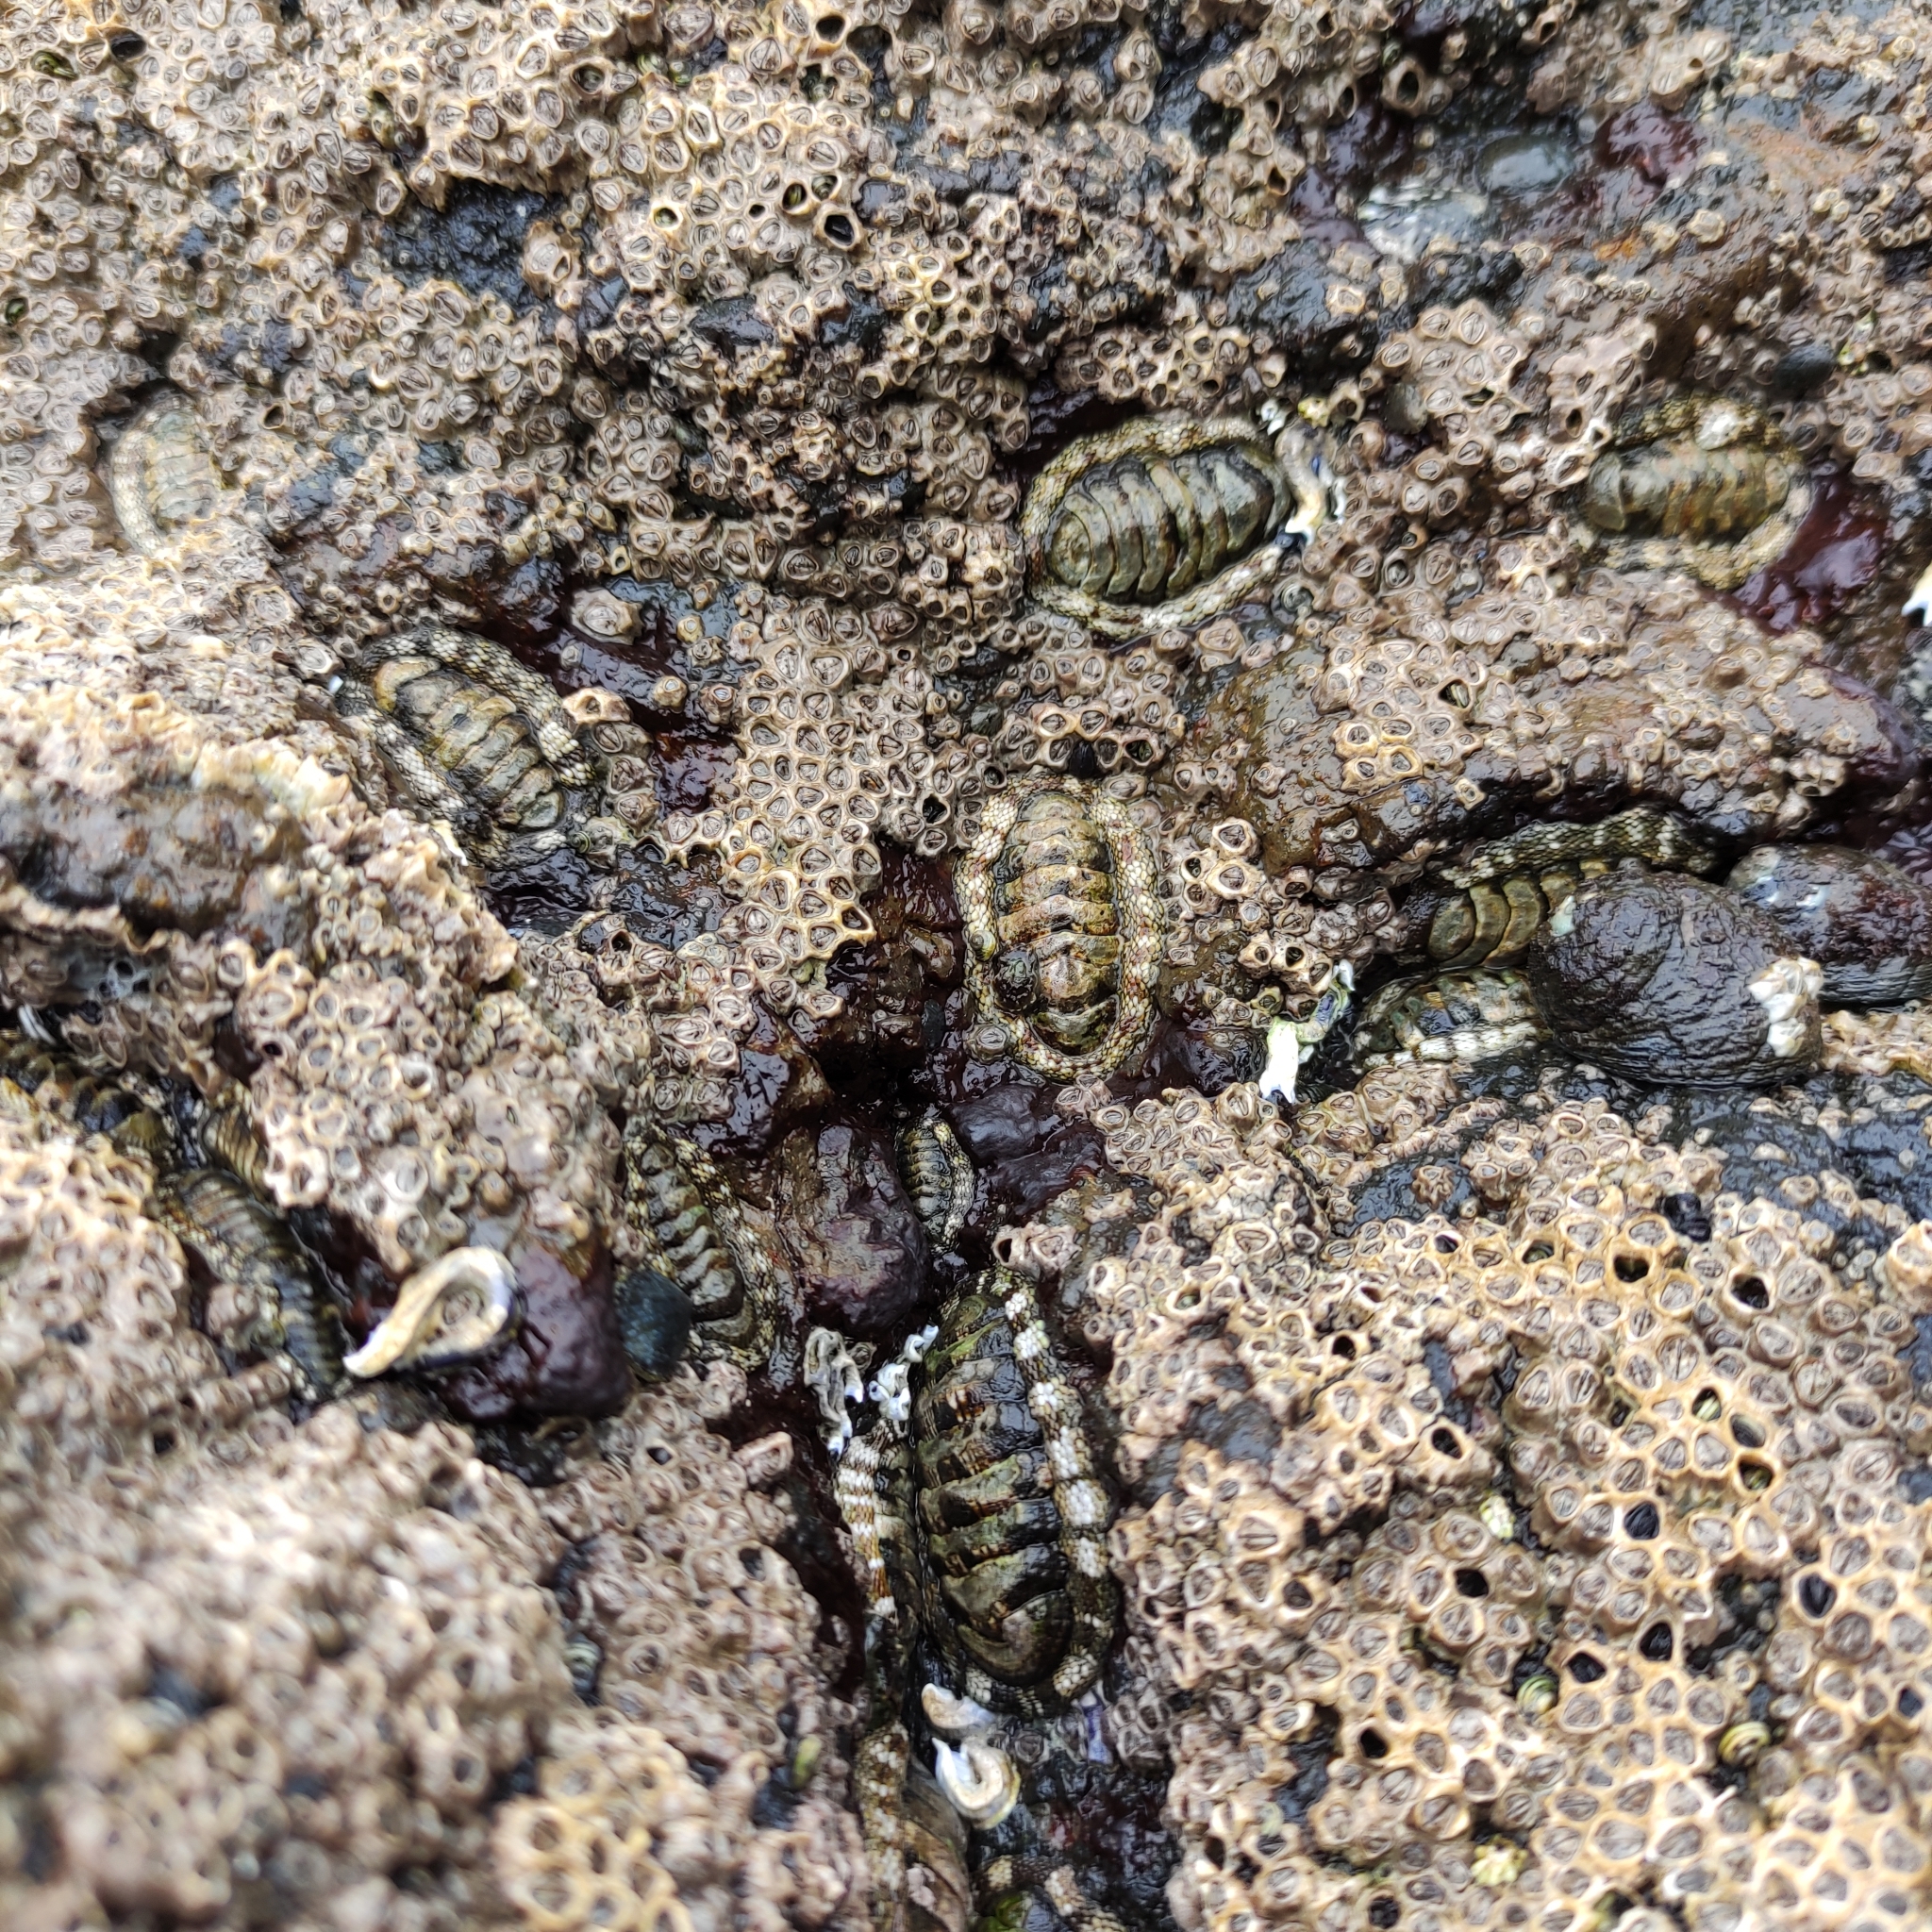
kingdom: Animalia
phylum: Mollusca
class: Polyplacophora
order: Chitonida
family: Chitonidae
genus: Sypharochiton
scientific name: Sypharochiton pelliserpentis
